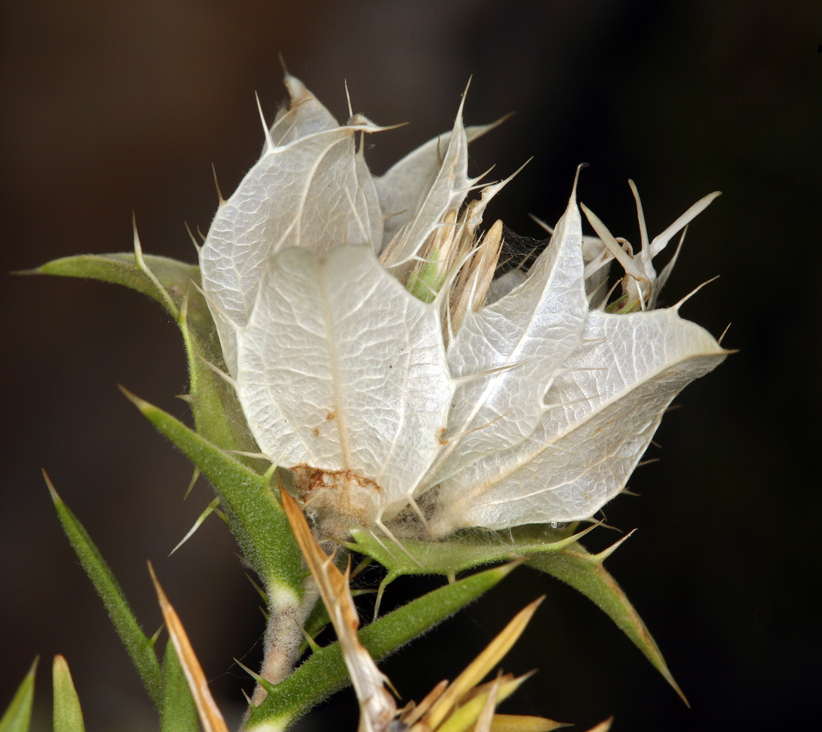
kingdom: Plantae
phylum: Tracheophyta
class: Magnoliopsida
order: Asterales
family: Asteraceae
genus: Hecastocleis
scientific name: Hecastocleis shockleyi
